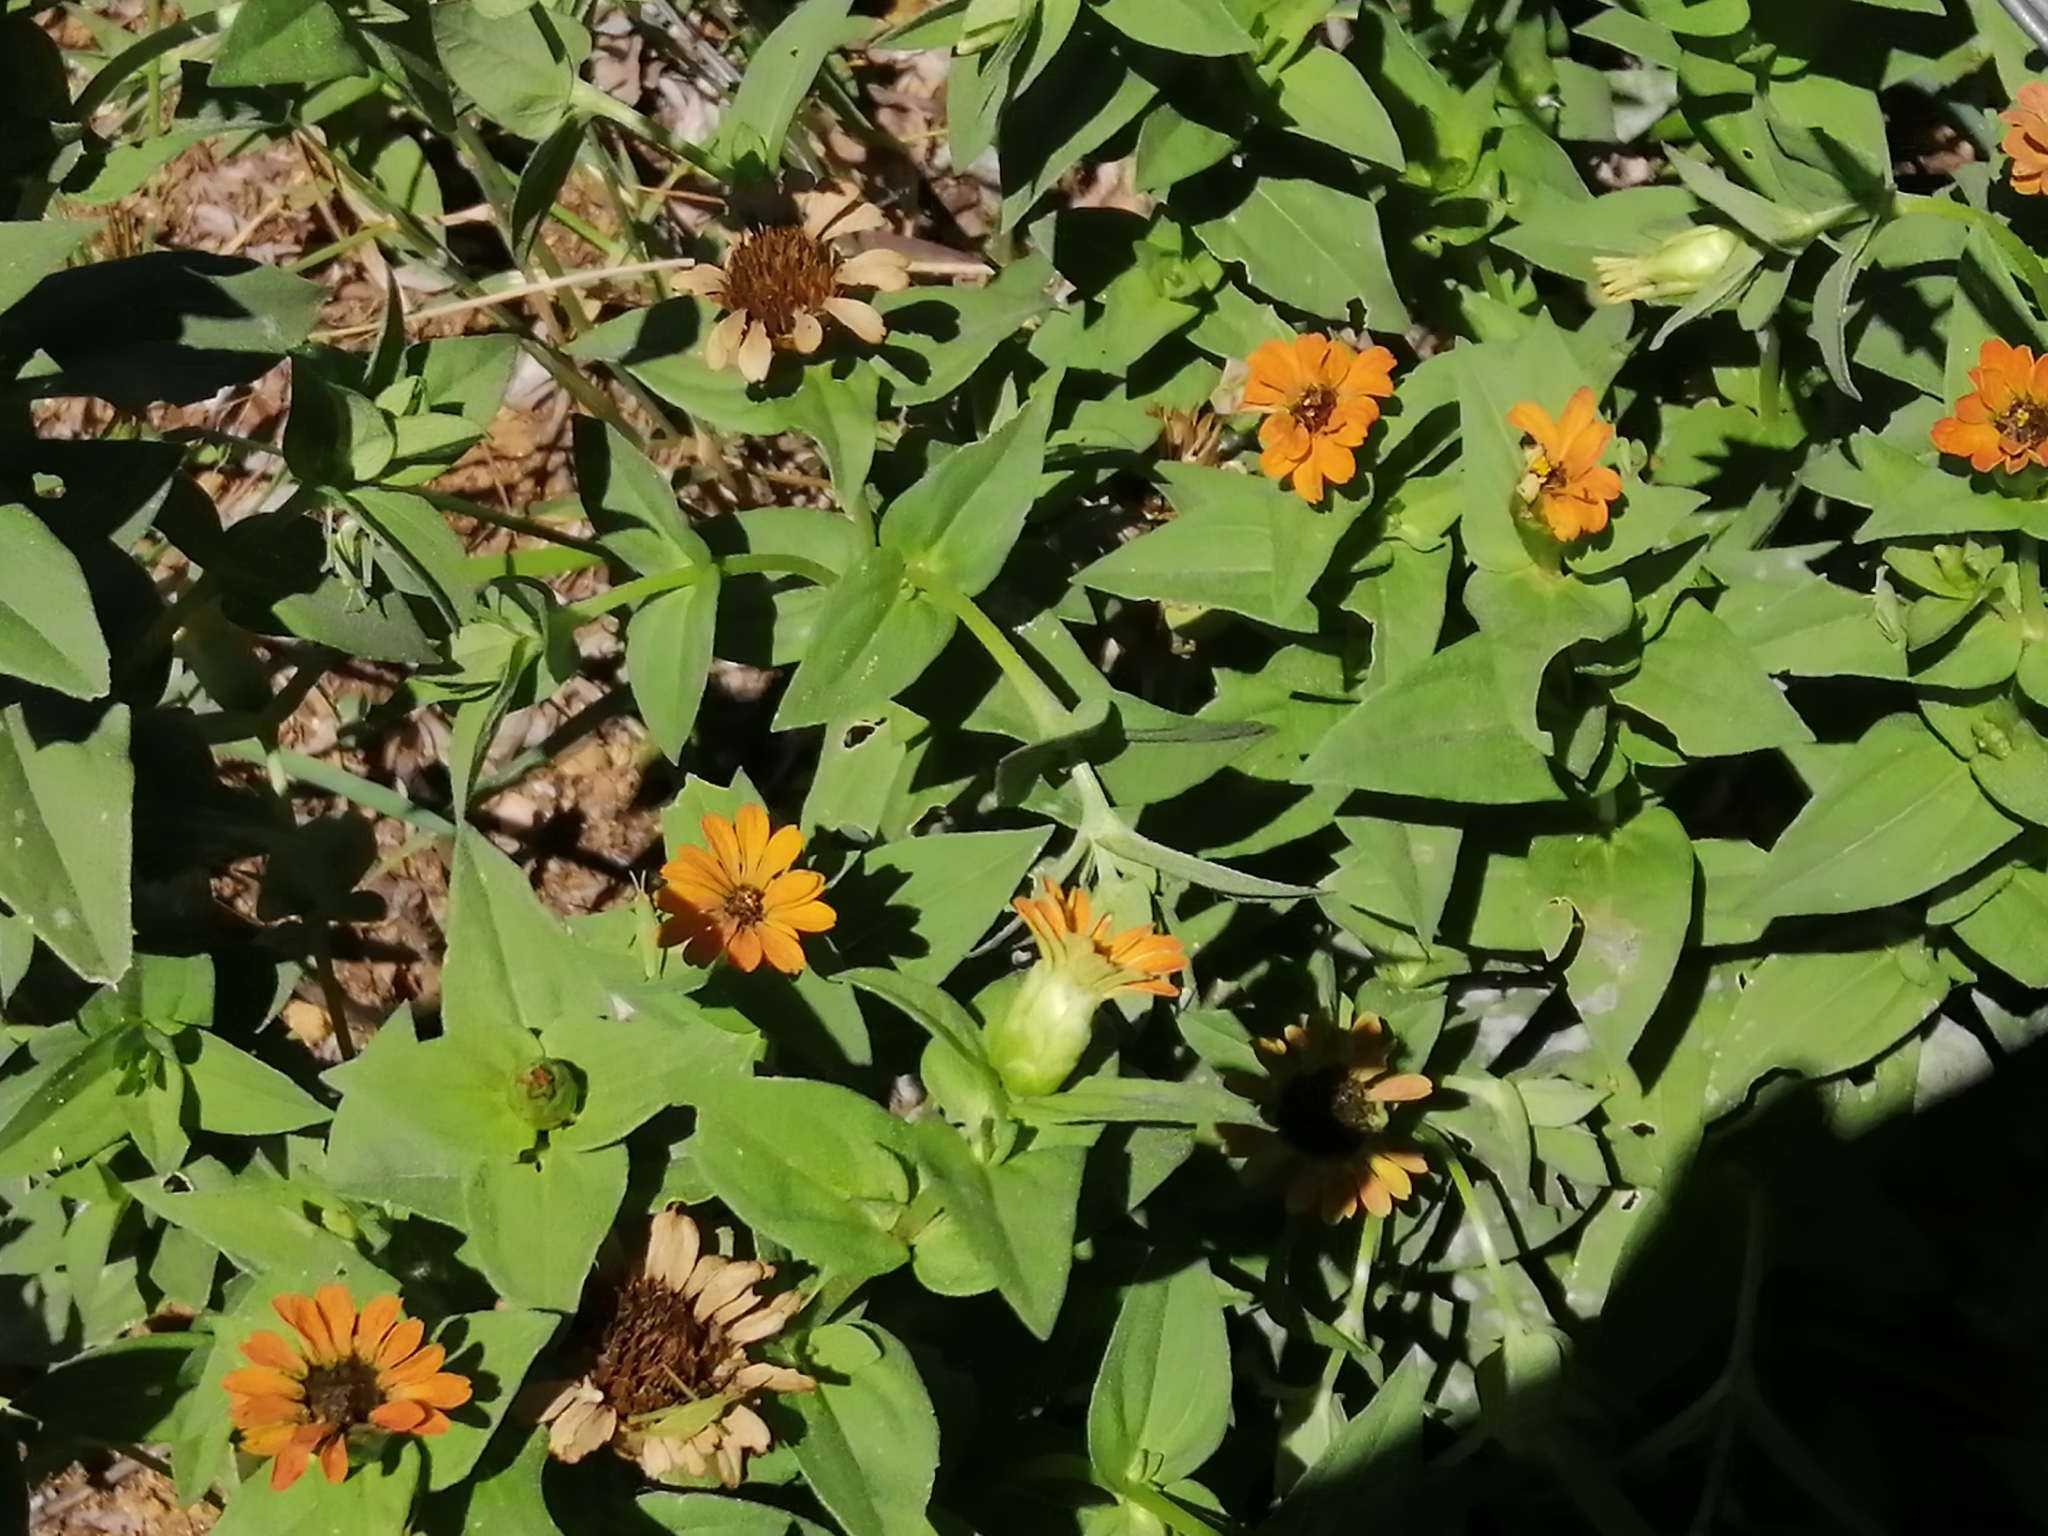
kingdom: Plantae
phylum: Tracheophyta
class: Magnoliopsida
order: Asterales
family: Asteraceae
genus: Zinnia
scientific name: Zinnia peruviana
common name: Peruvian zinnia
